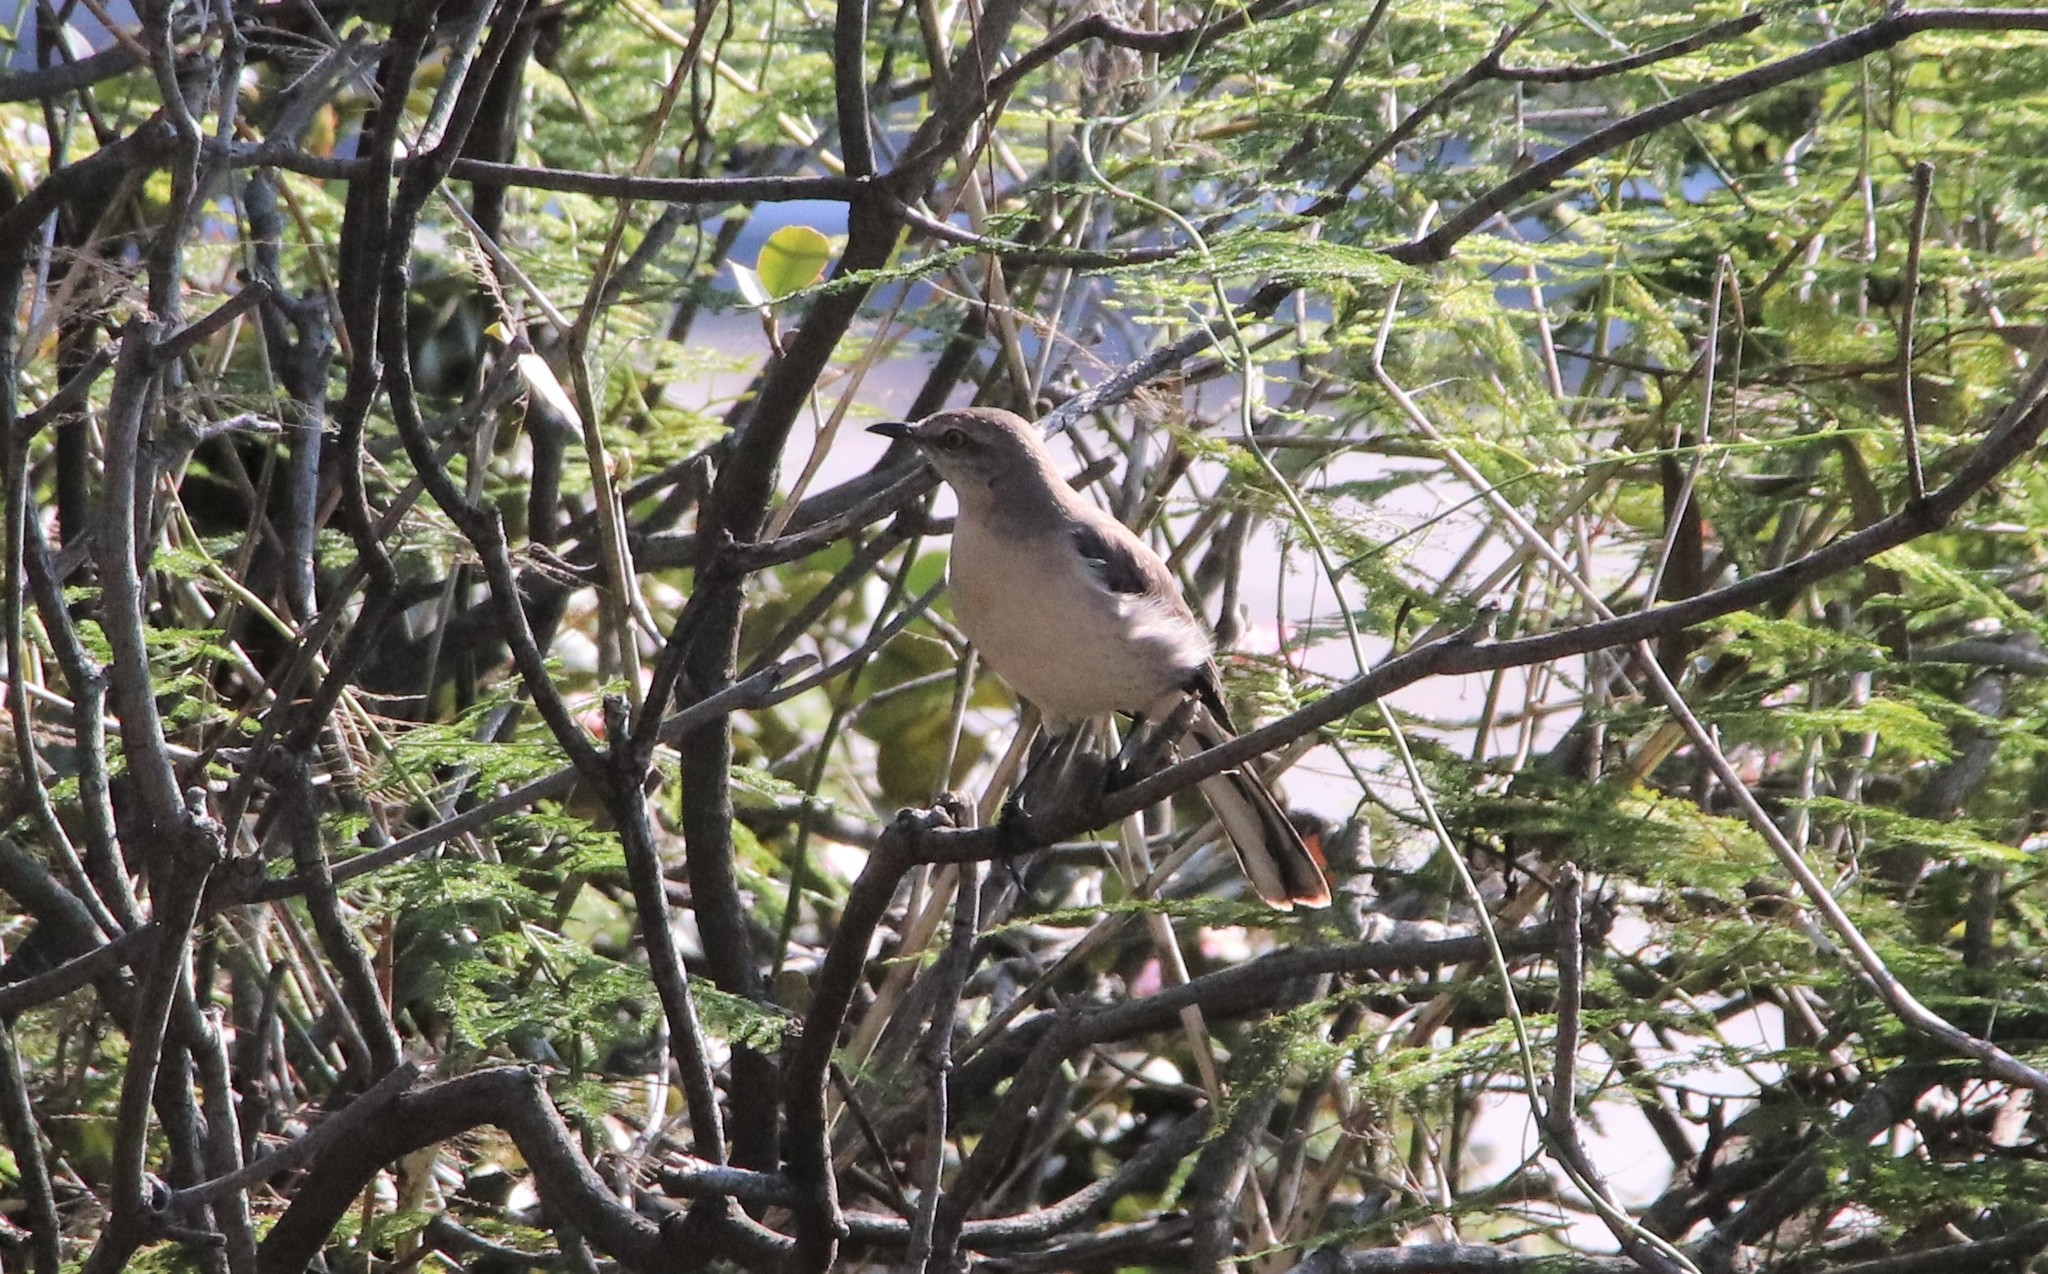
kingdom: Animalia
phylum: Chordata
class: Aves
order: Passeriformes
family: Mimidae
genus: Mimus
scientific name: Mimus polyglottos
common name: Northern mockingbird
